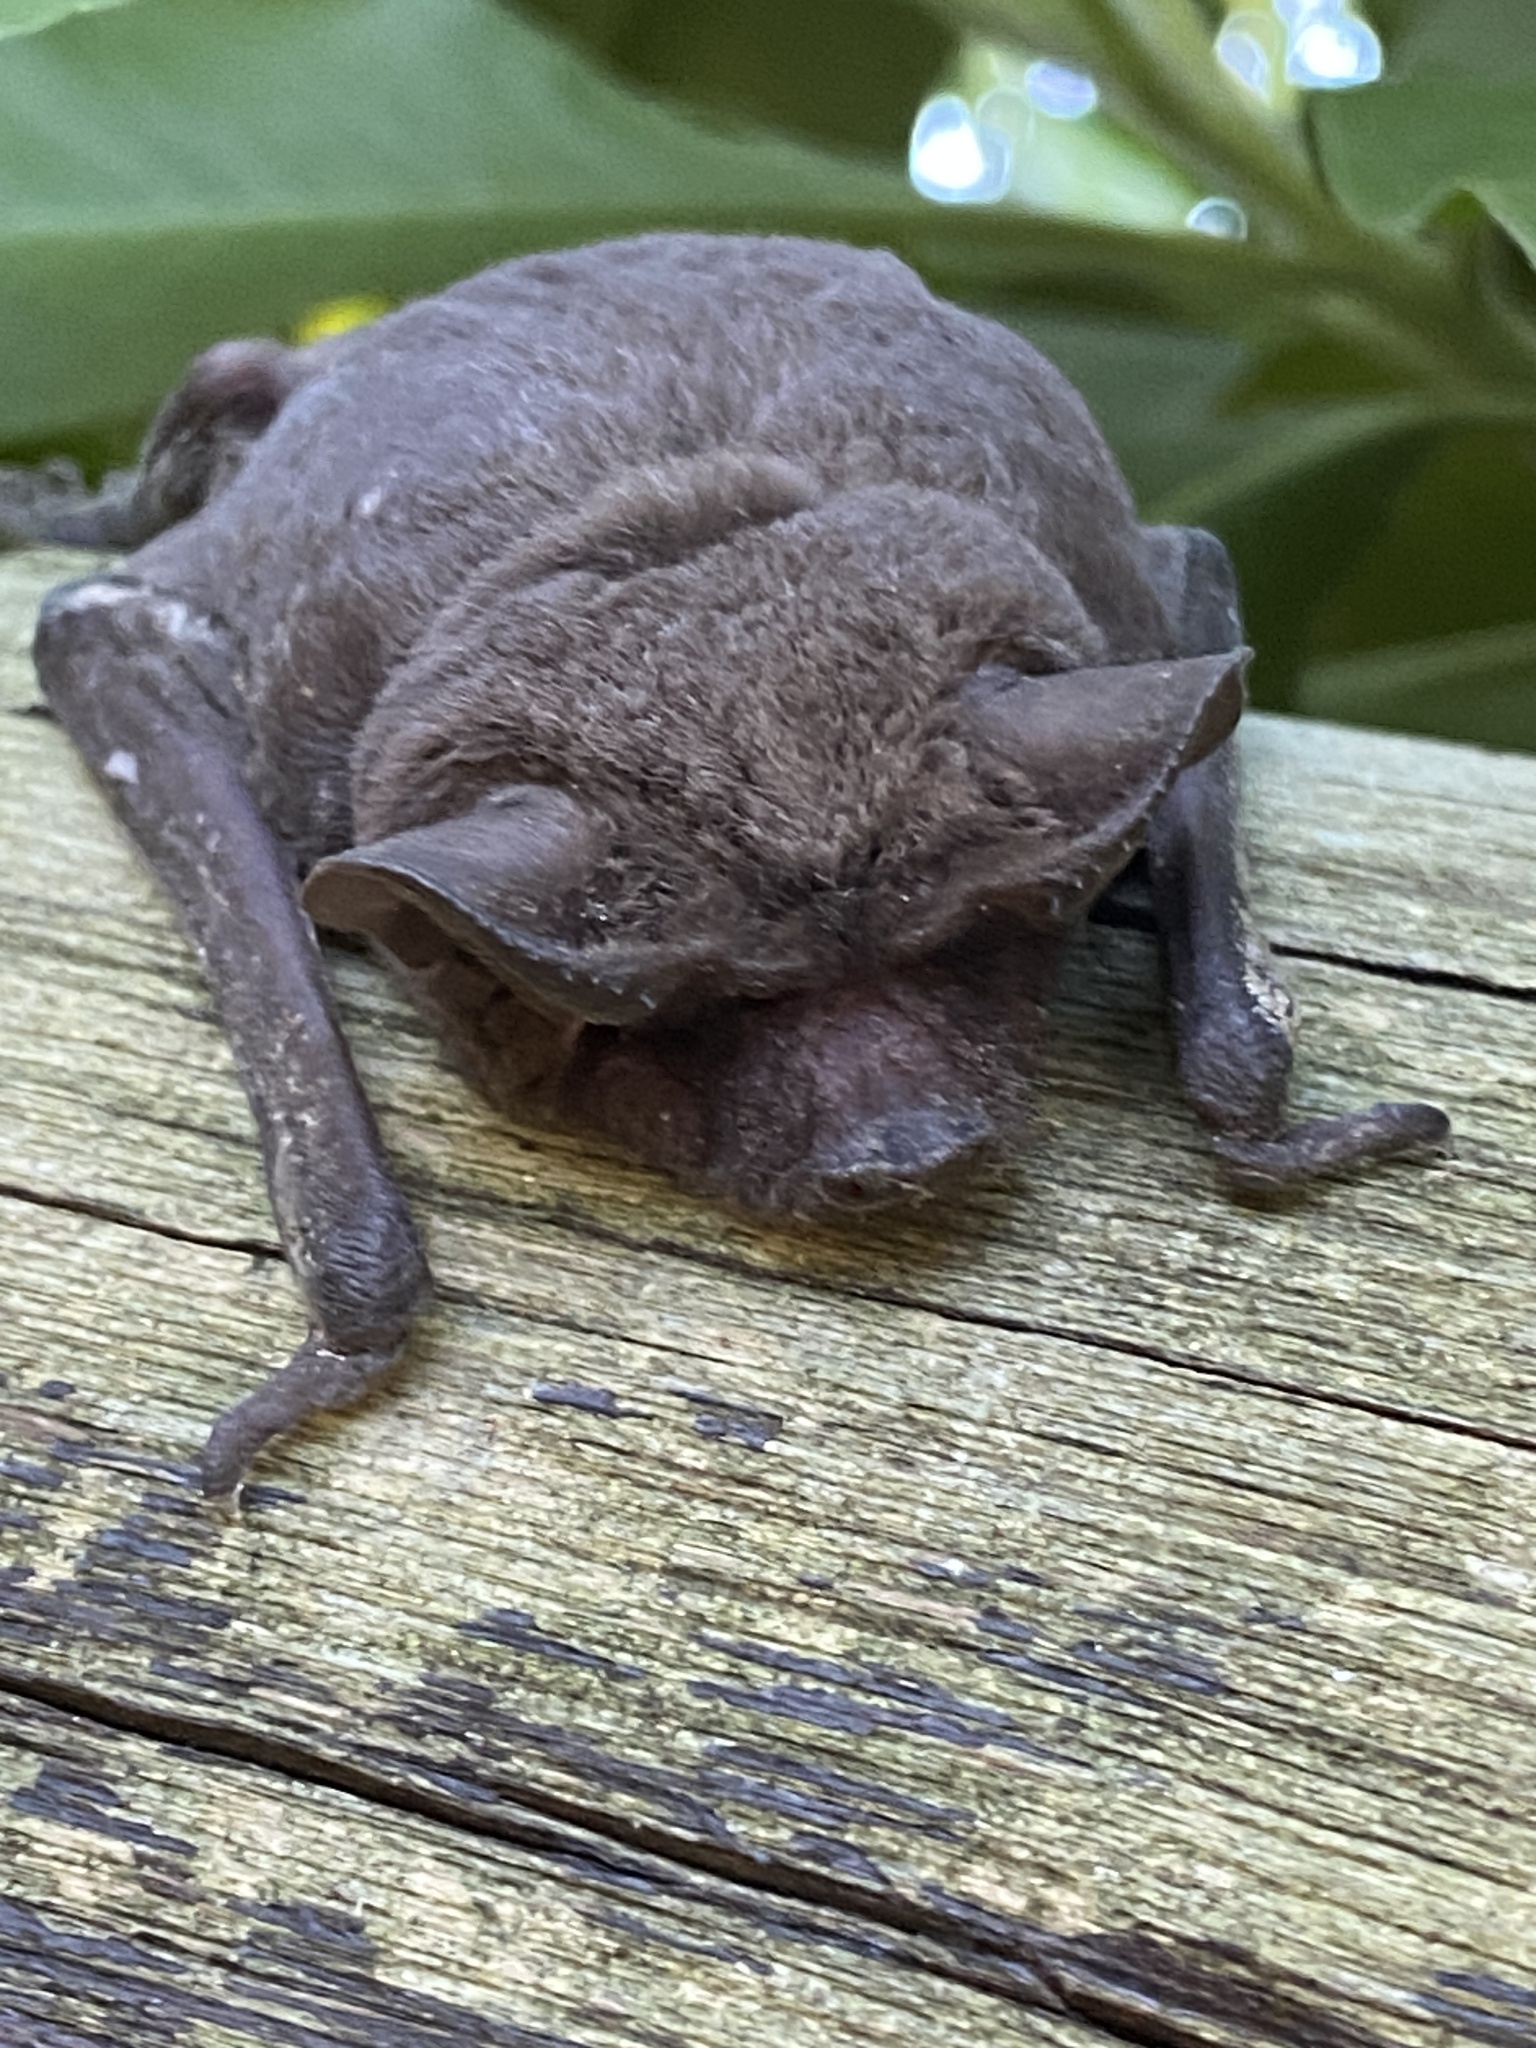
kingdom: Animalia
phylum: Chordata
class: Mammalia
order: Chiroptera
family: Molossidae
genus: Tadarida
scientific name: Tadarida brasiliensis
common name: Mexican free-tailed bat
